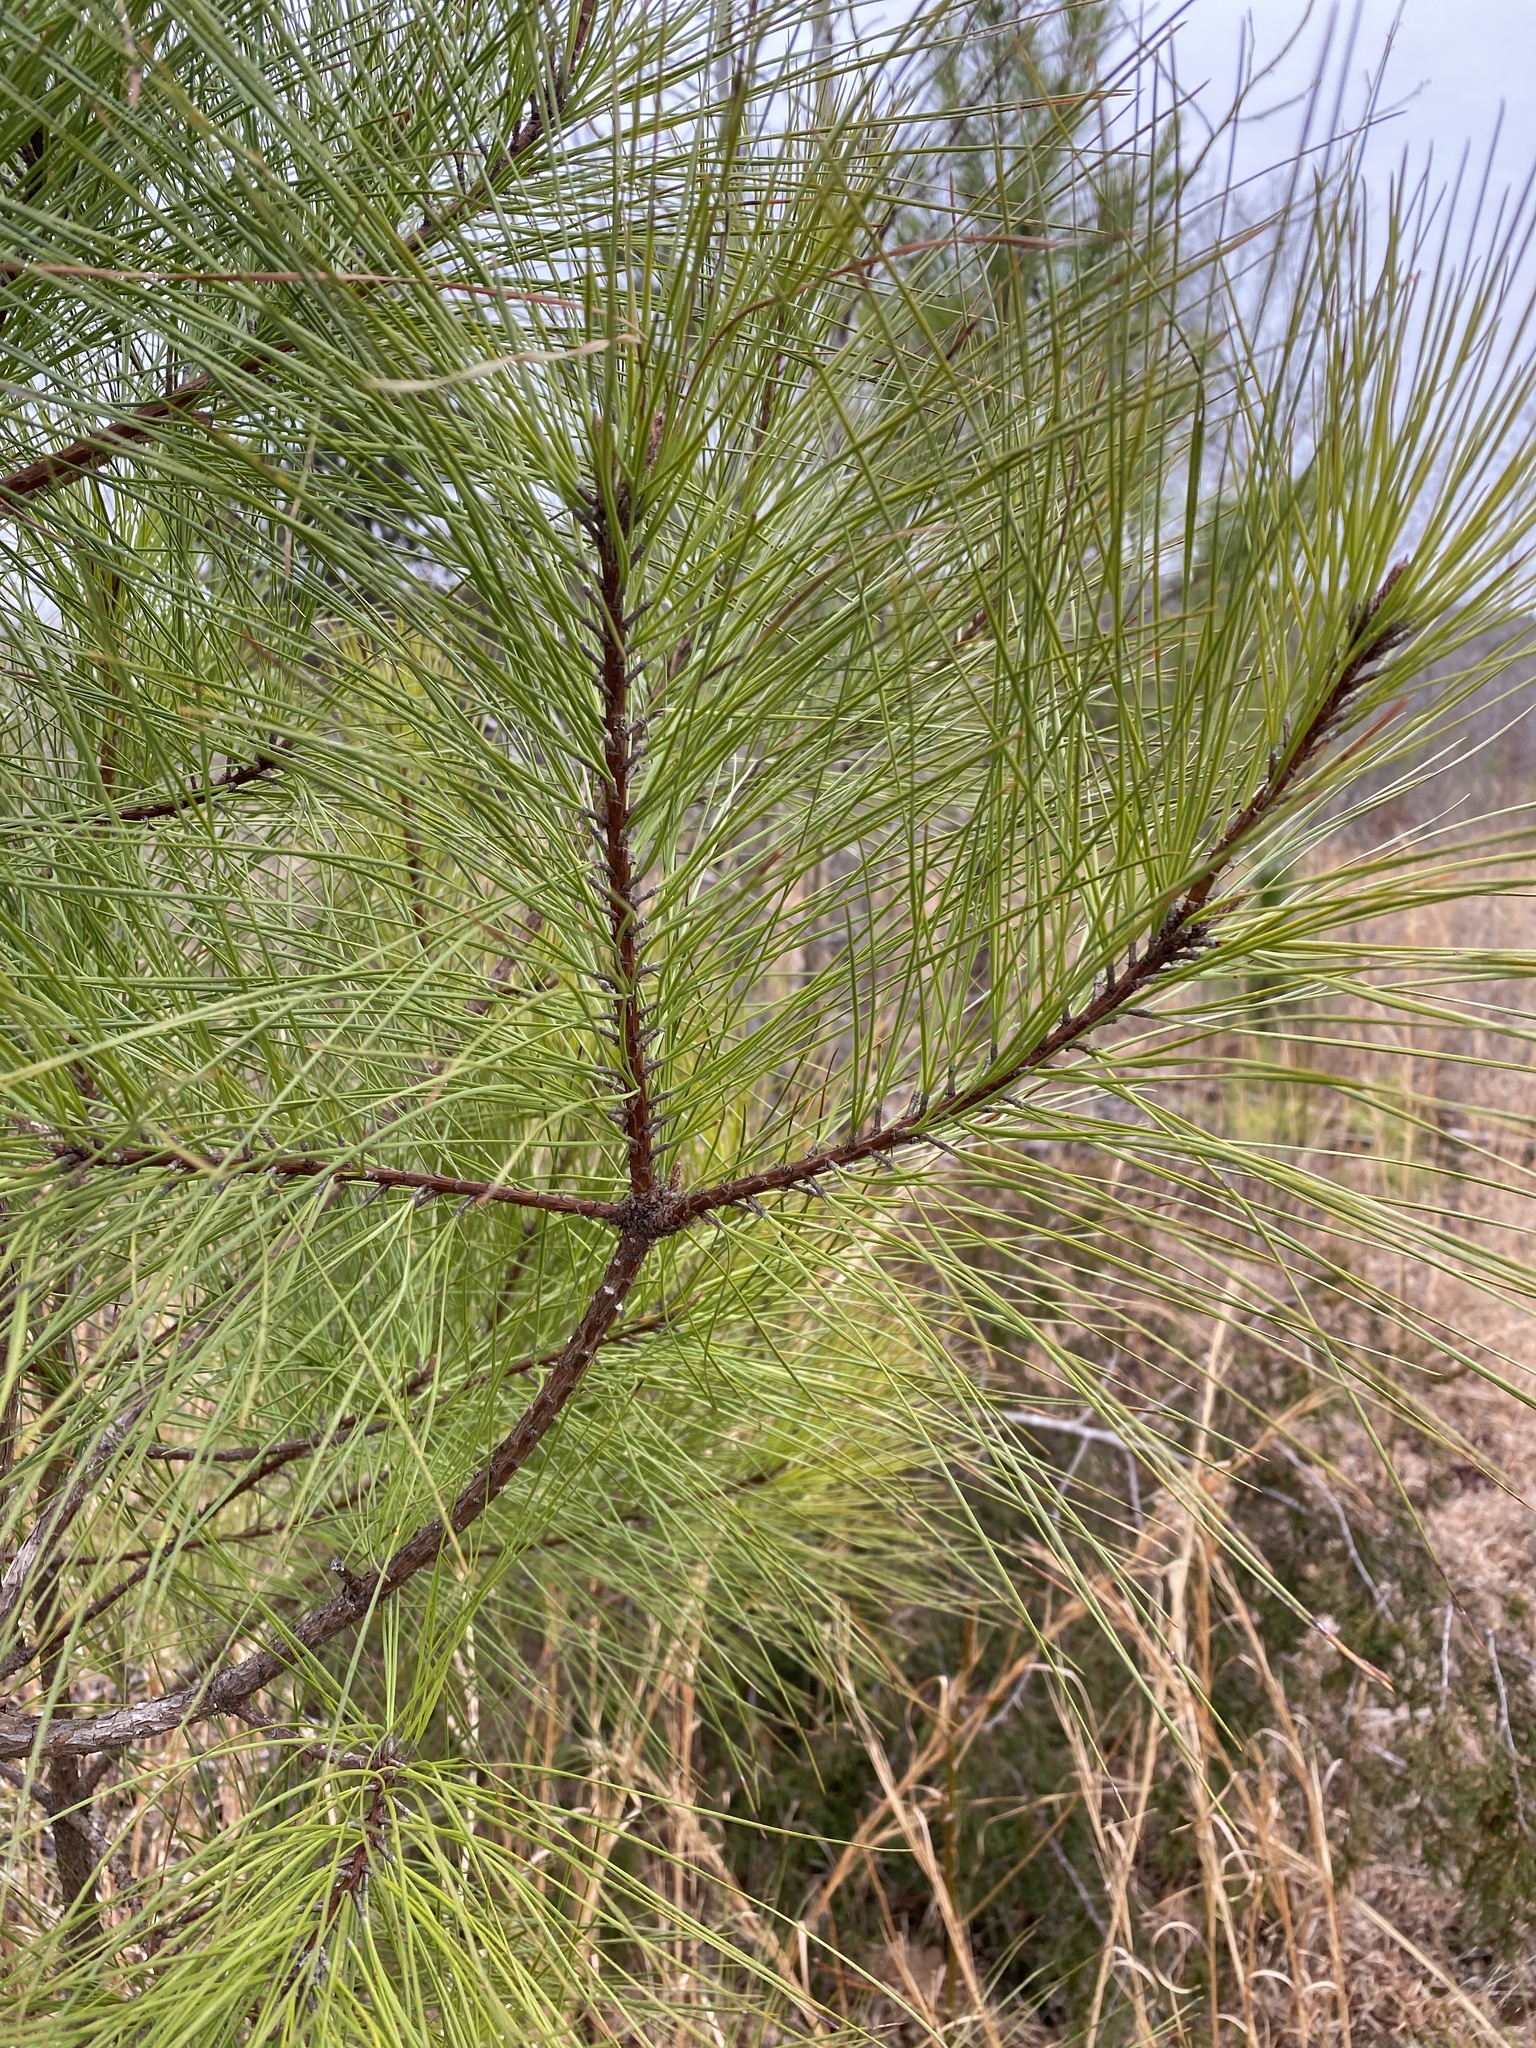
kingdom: Plantae
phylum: Tracheophyta
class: Pinopsida
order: Pinales
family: Pinaceae
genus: Pinus
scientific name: Pinus taeda
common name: Loblolly pine
